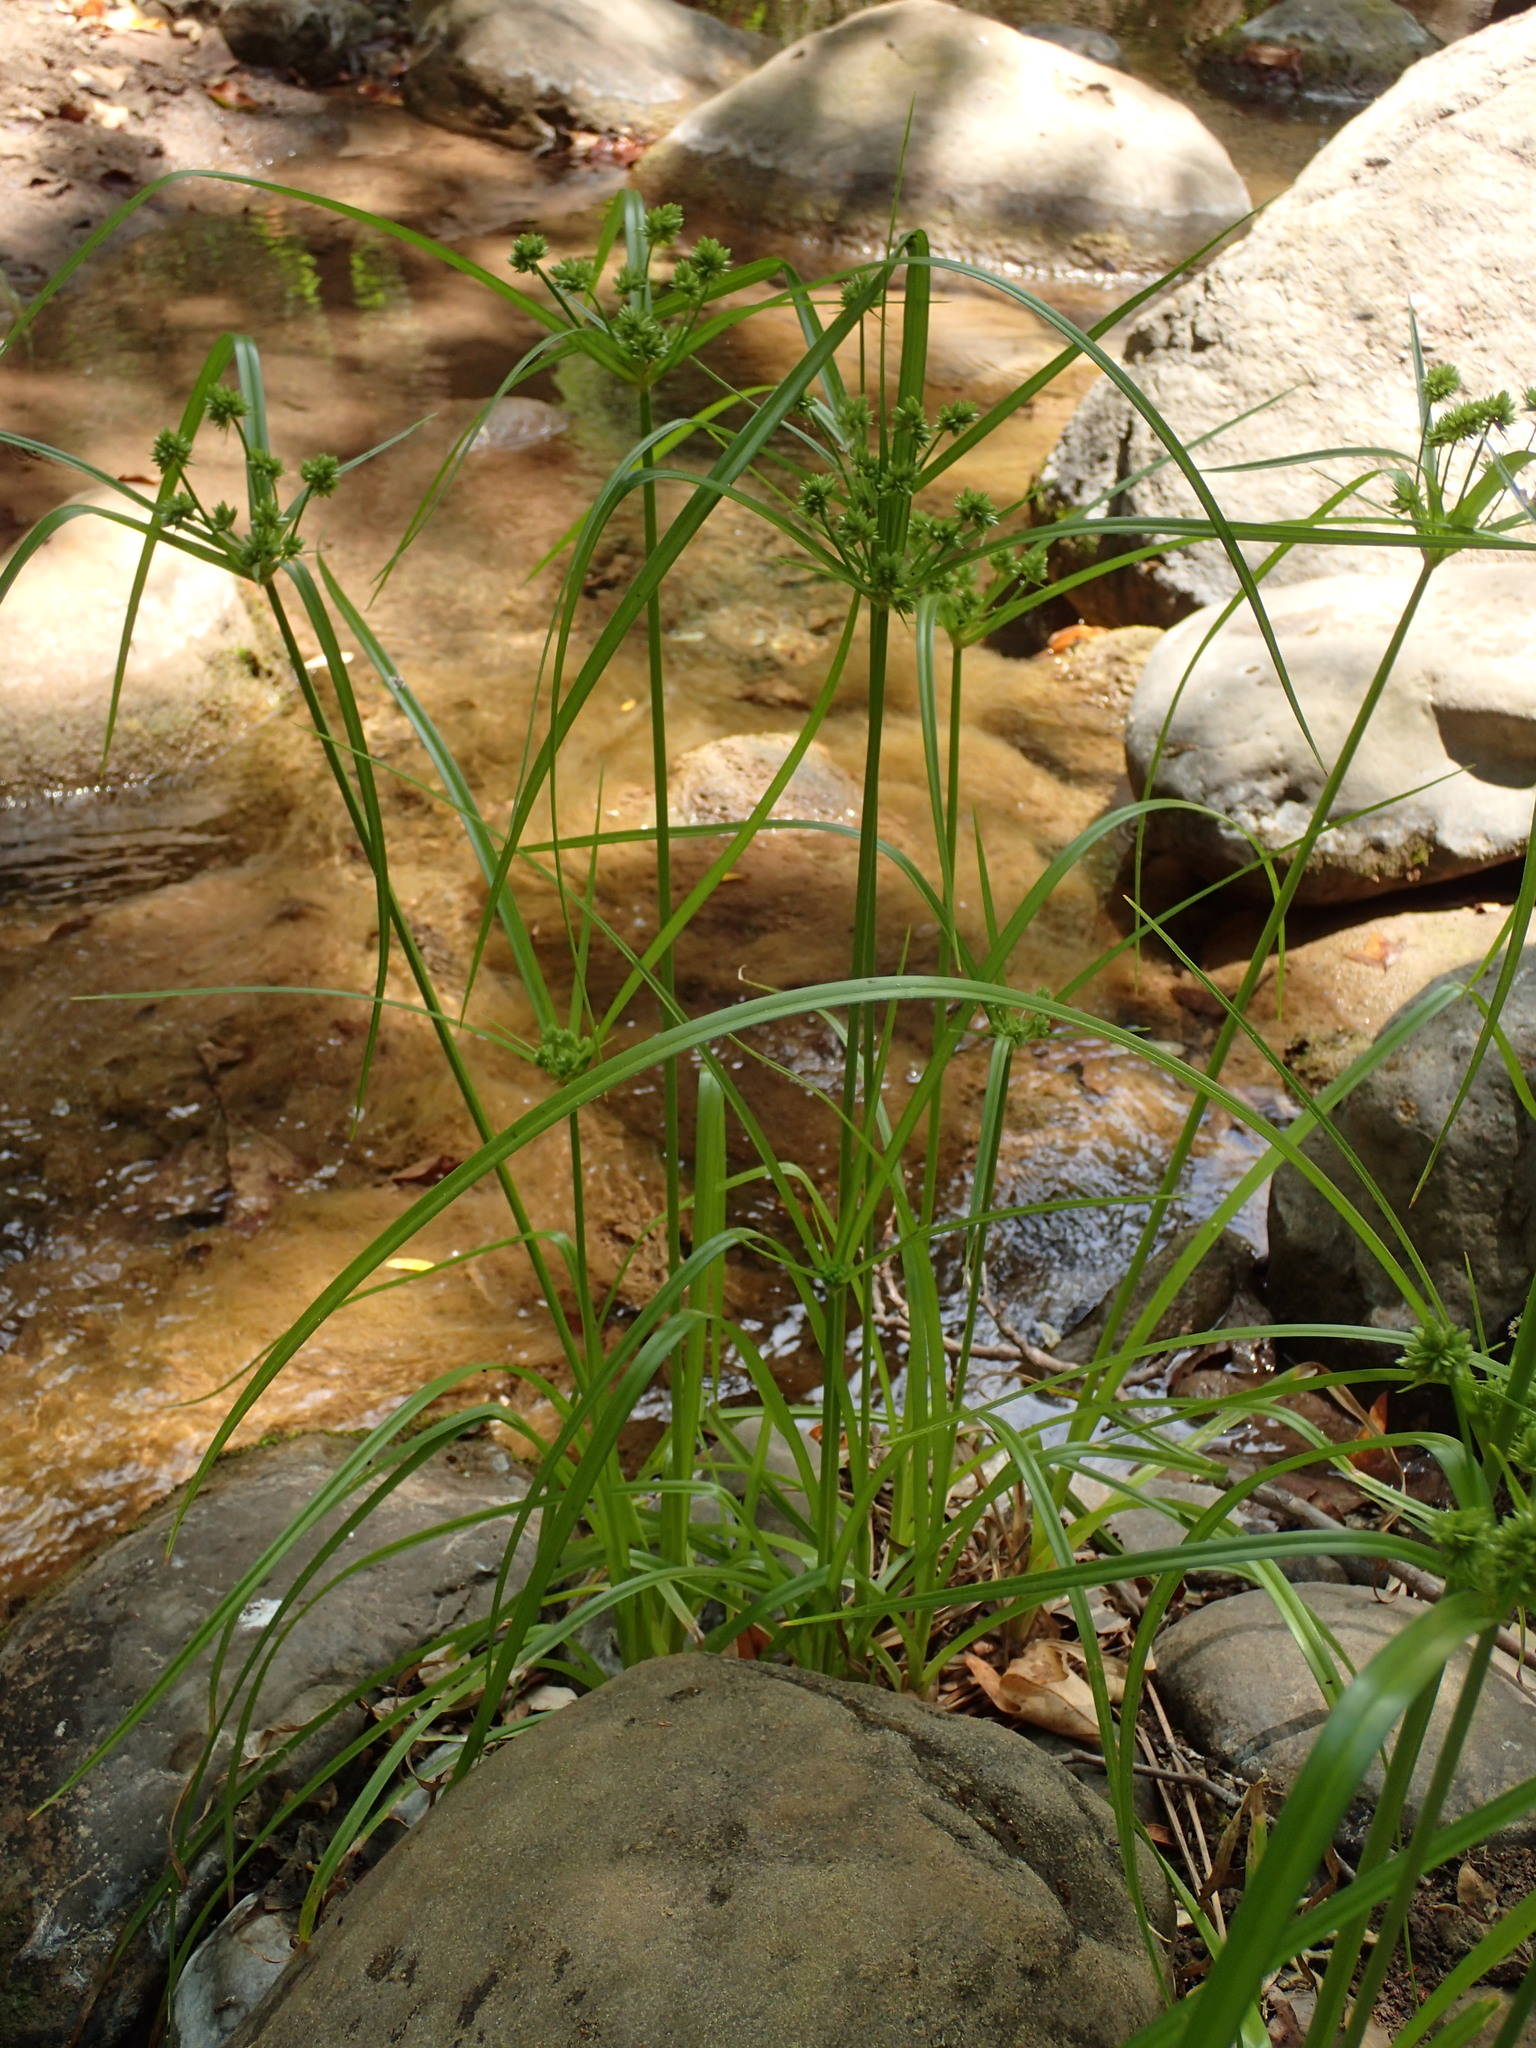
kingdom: Plantae
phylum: Tracheophyta
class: Liliopsida
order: Poales
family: Cyperaceae
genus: Cyperus
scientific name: Cyperus eragrostis
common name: Tall flatsedge
